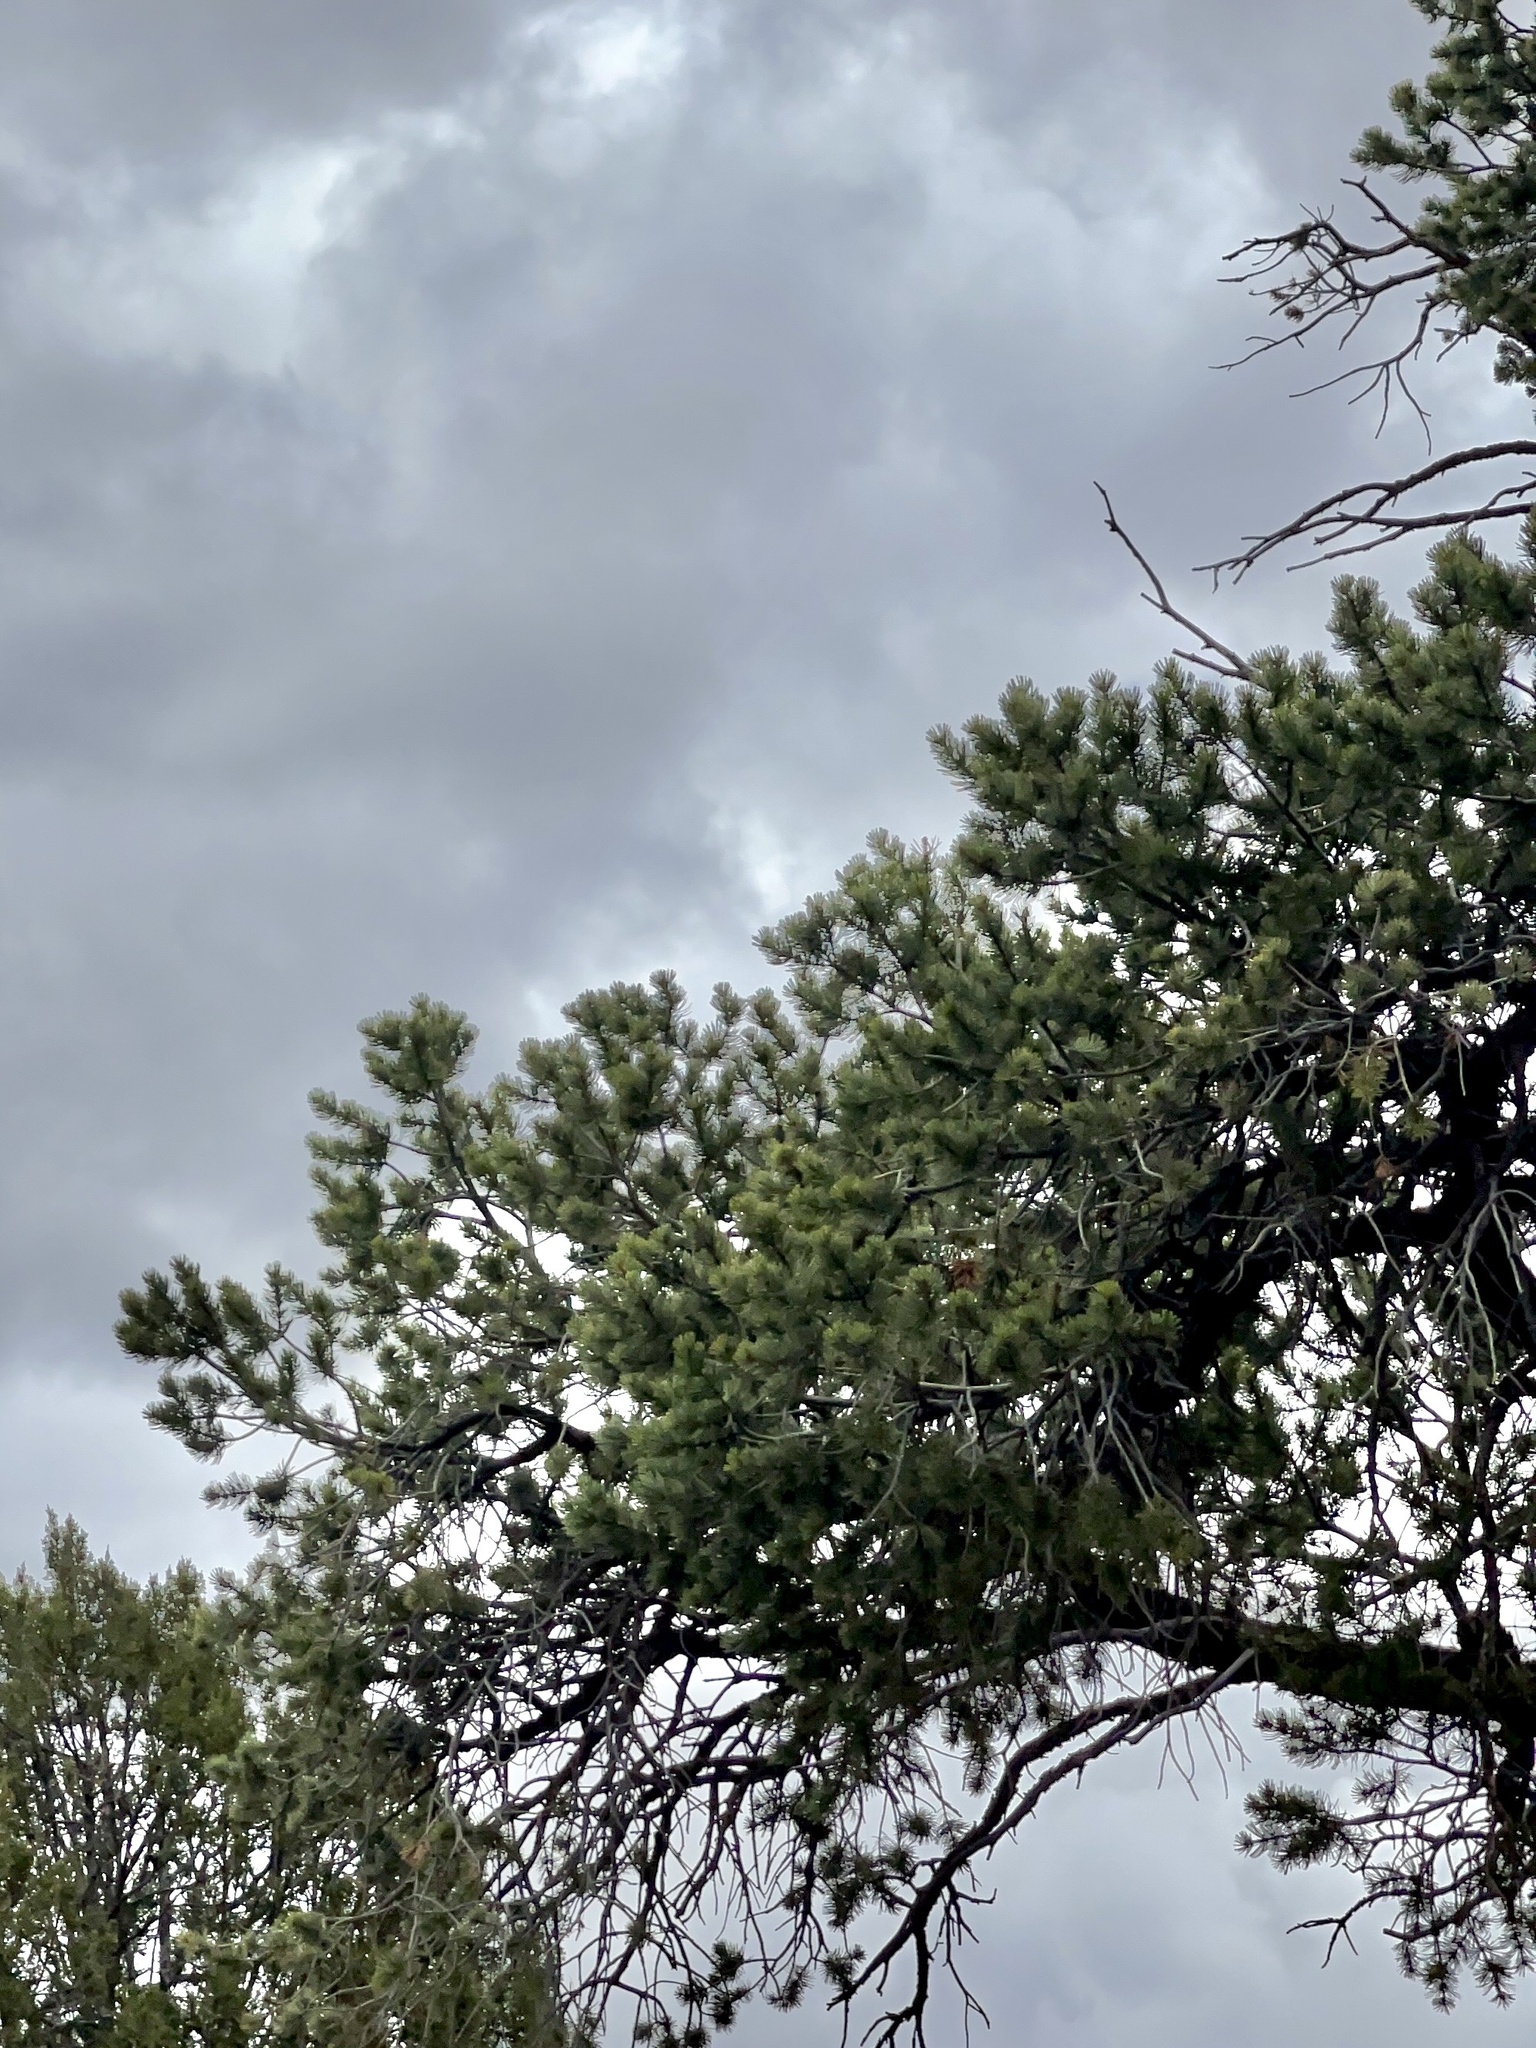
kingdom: Plantae
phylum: Tracheophyta
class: Pinopsida
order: Pinales
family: Pinaceae
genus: Pinus
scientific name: Pinus edulis
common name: Colorado pinyon
